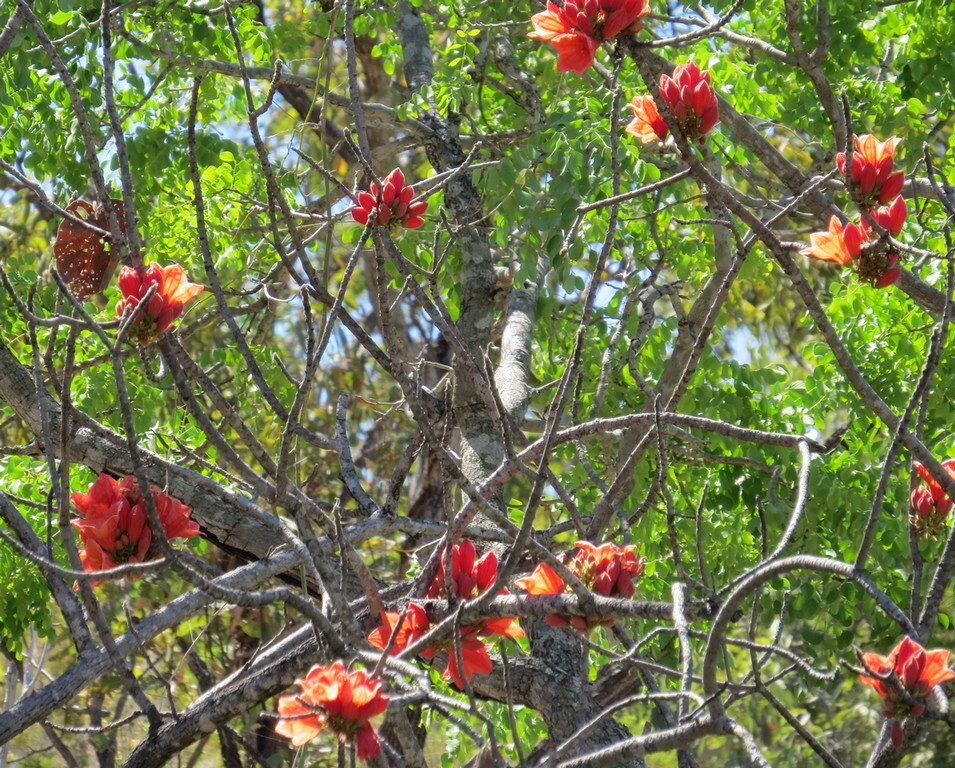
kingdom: Plantae
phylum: Tracheophyta
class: Magnoliopsida
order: Malvales
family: Malvaceae
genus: Brachychiton
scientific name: Brachychiton viscidulus
